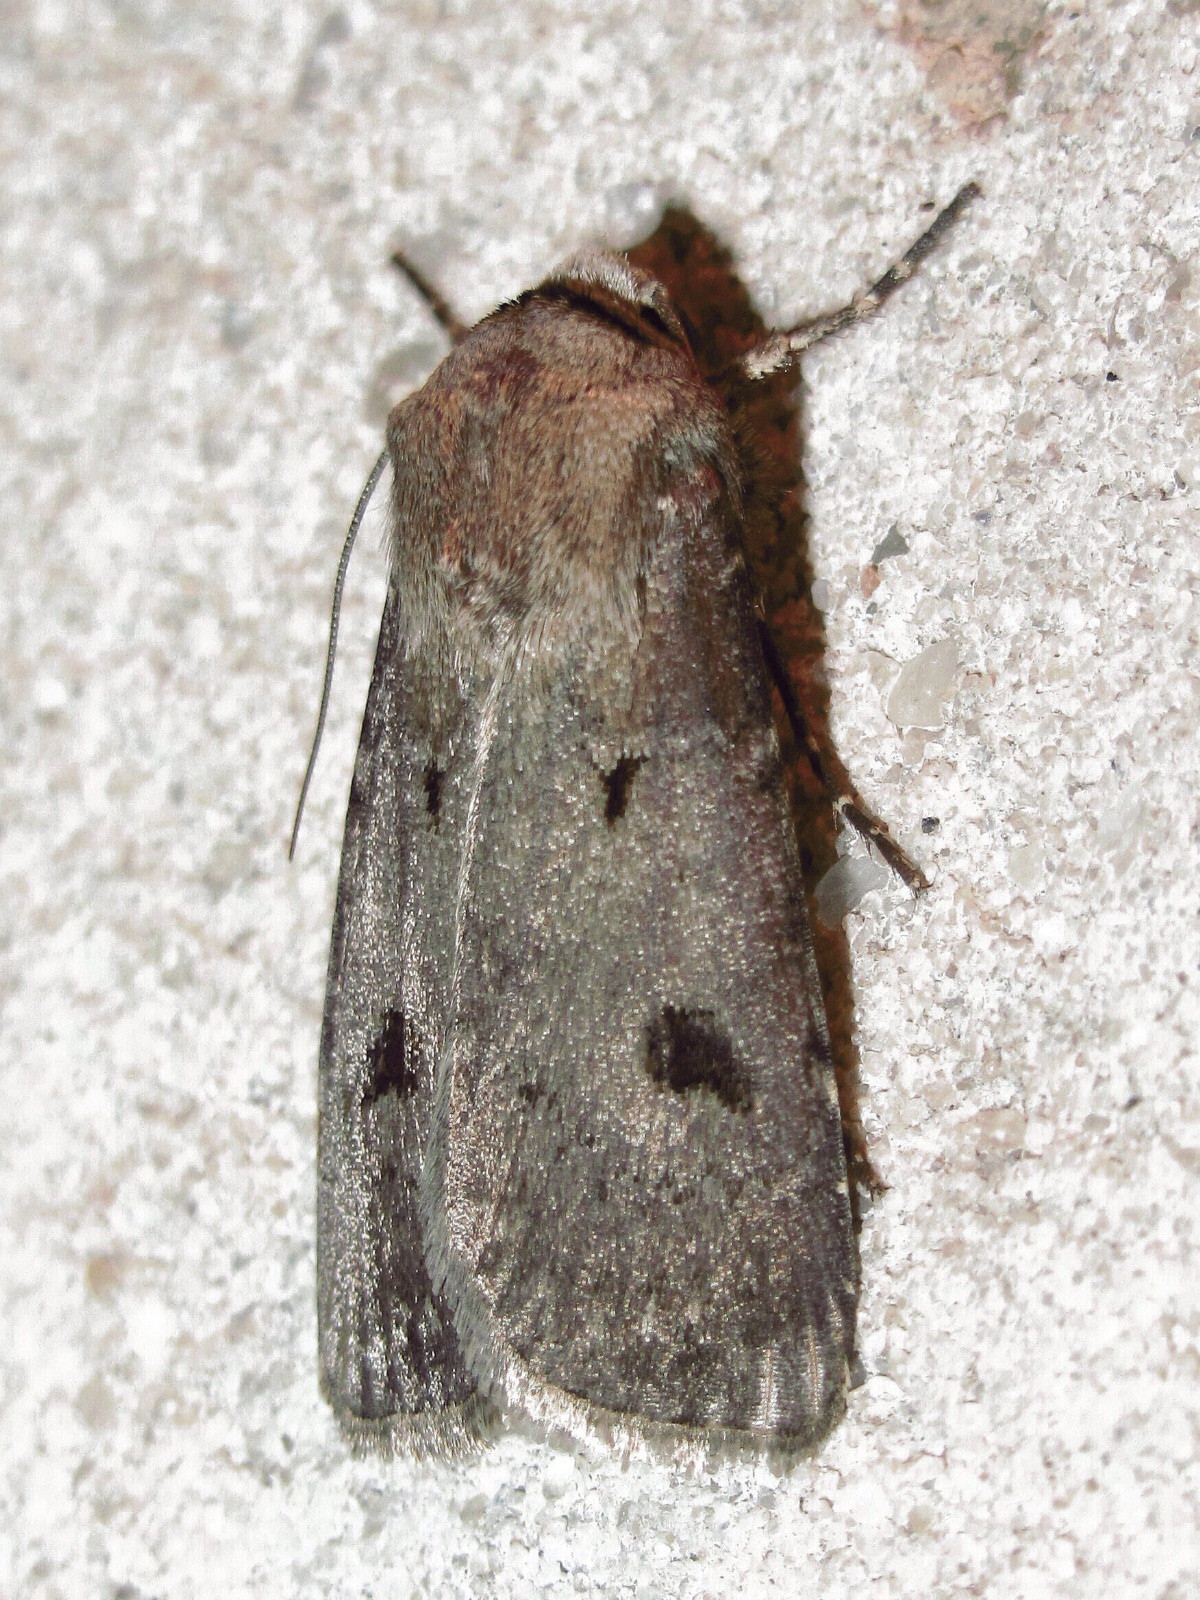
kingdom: Animalia
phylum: Arthropoda
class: Insecta
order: Lepidoptera
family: Noctuidae
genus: Agrotis
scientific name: Agrotis trux
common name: Crescent dart
